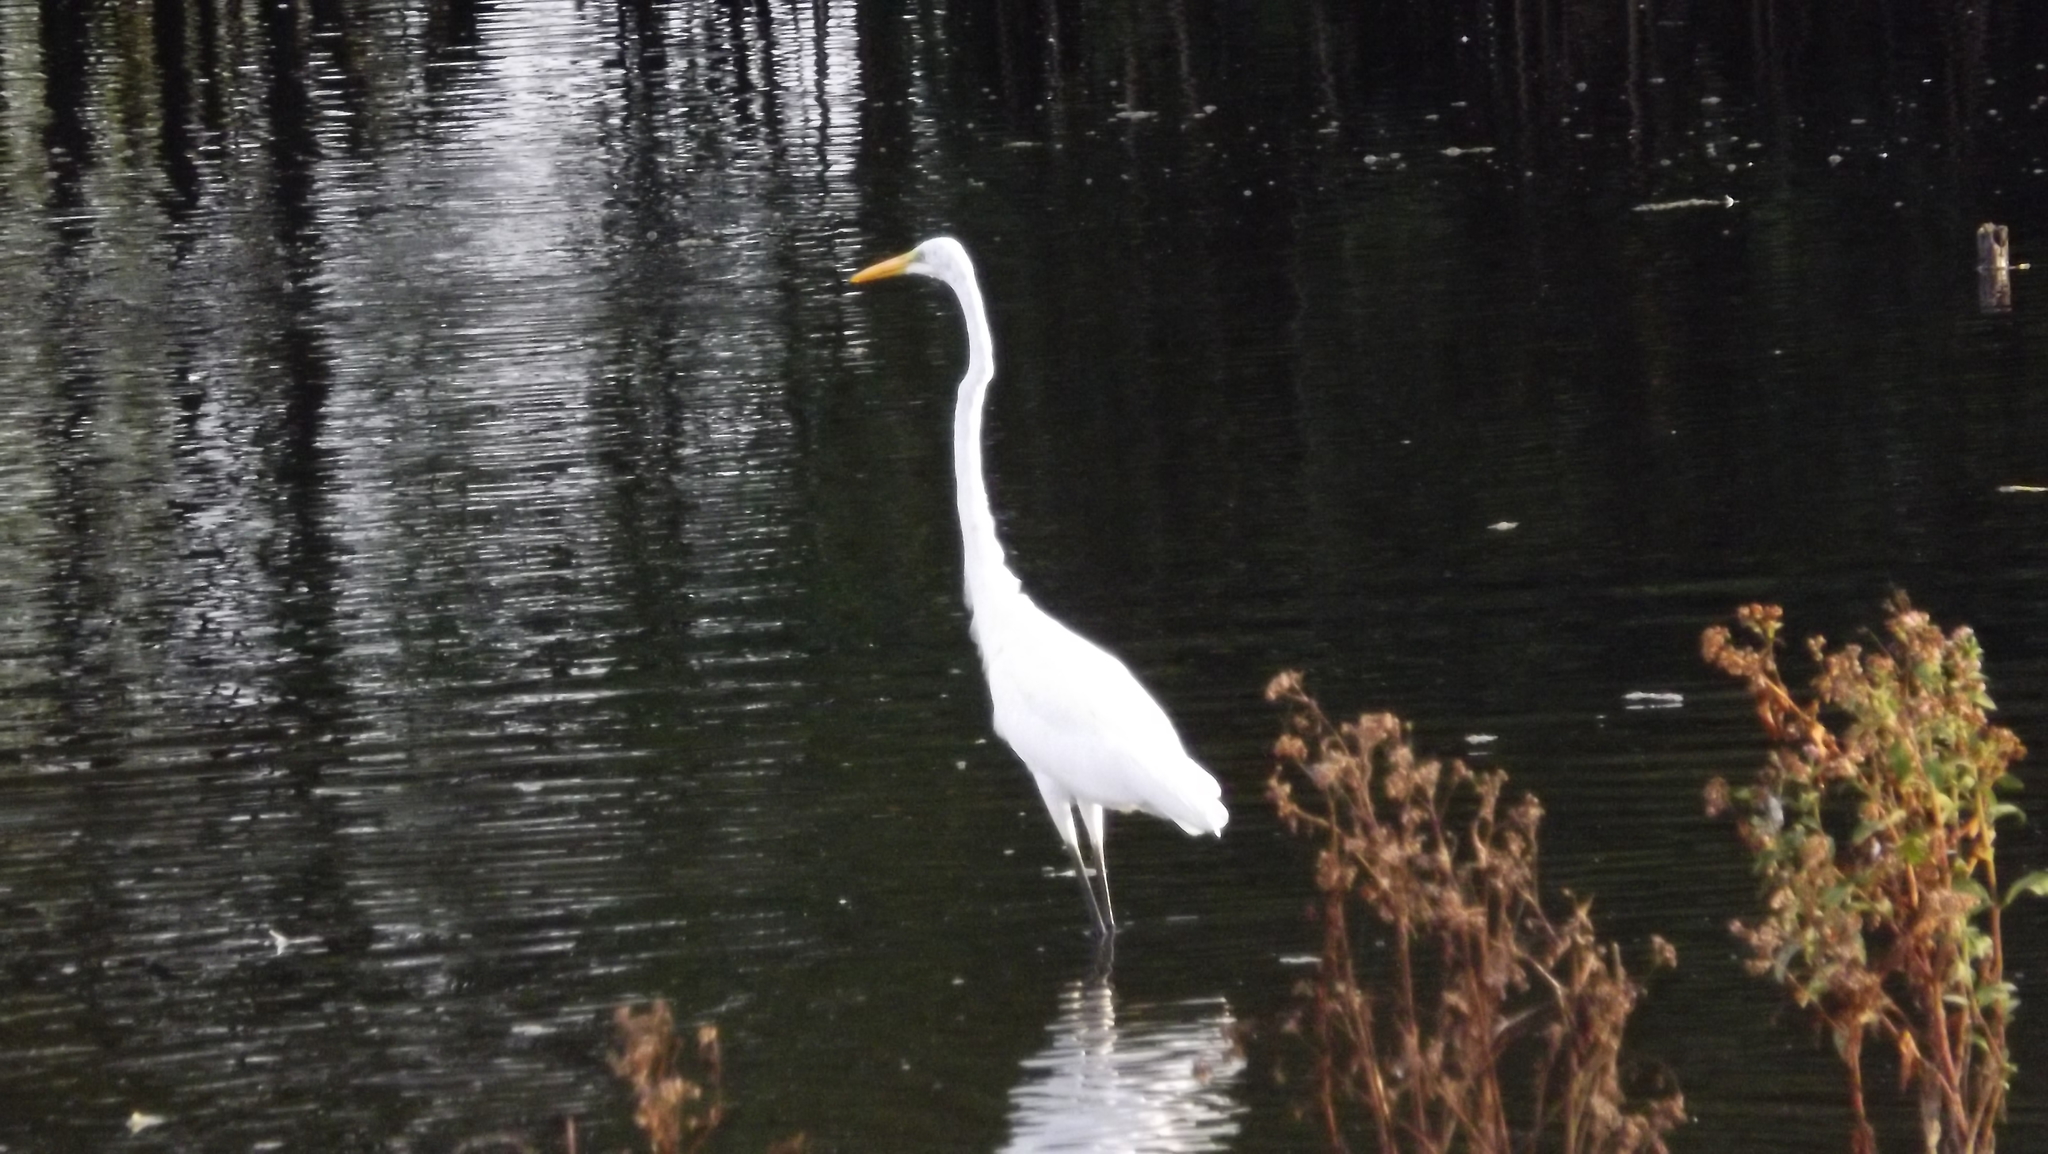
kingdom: Animalia
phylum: Chordata
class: Aves
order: Pelecaniformes
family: Ardeidae
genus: Ardea
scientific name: Ardea alba
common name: Great egret
